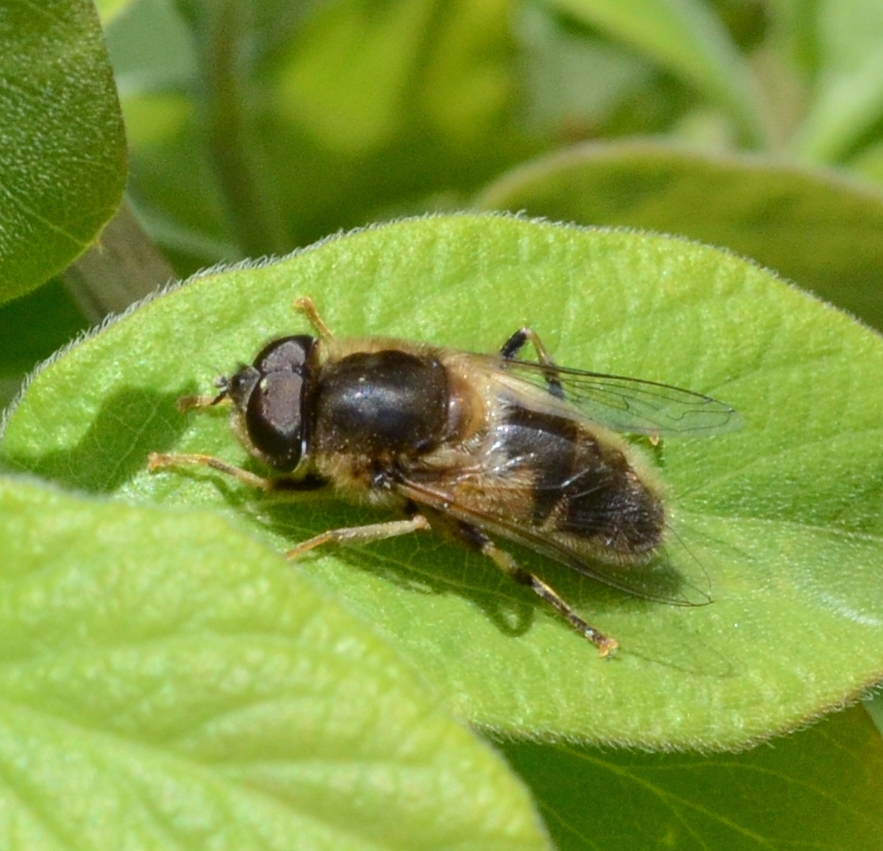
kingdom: Animalia
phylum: Arthropoda
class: Insecta
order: Diptera
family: Syrphidae
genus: Eristalis
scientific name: Eristalis pertinax
